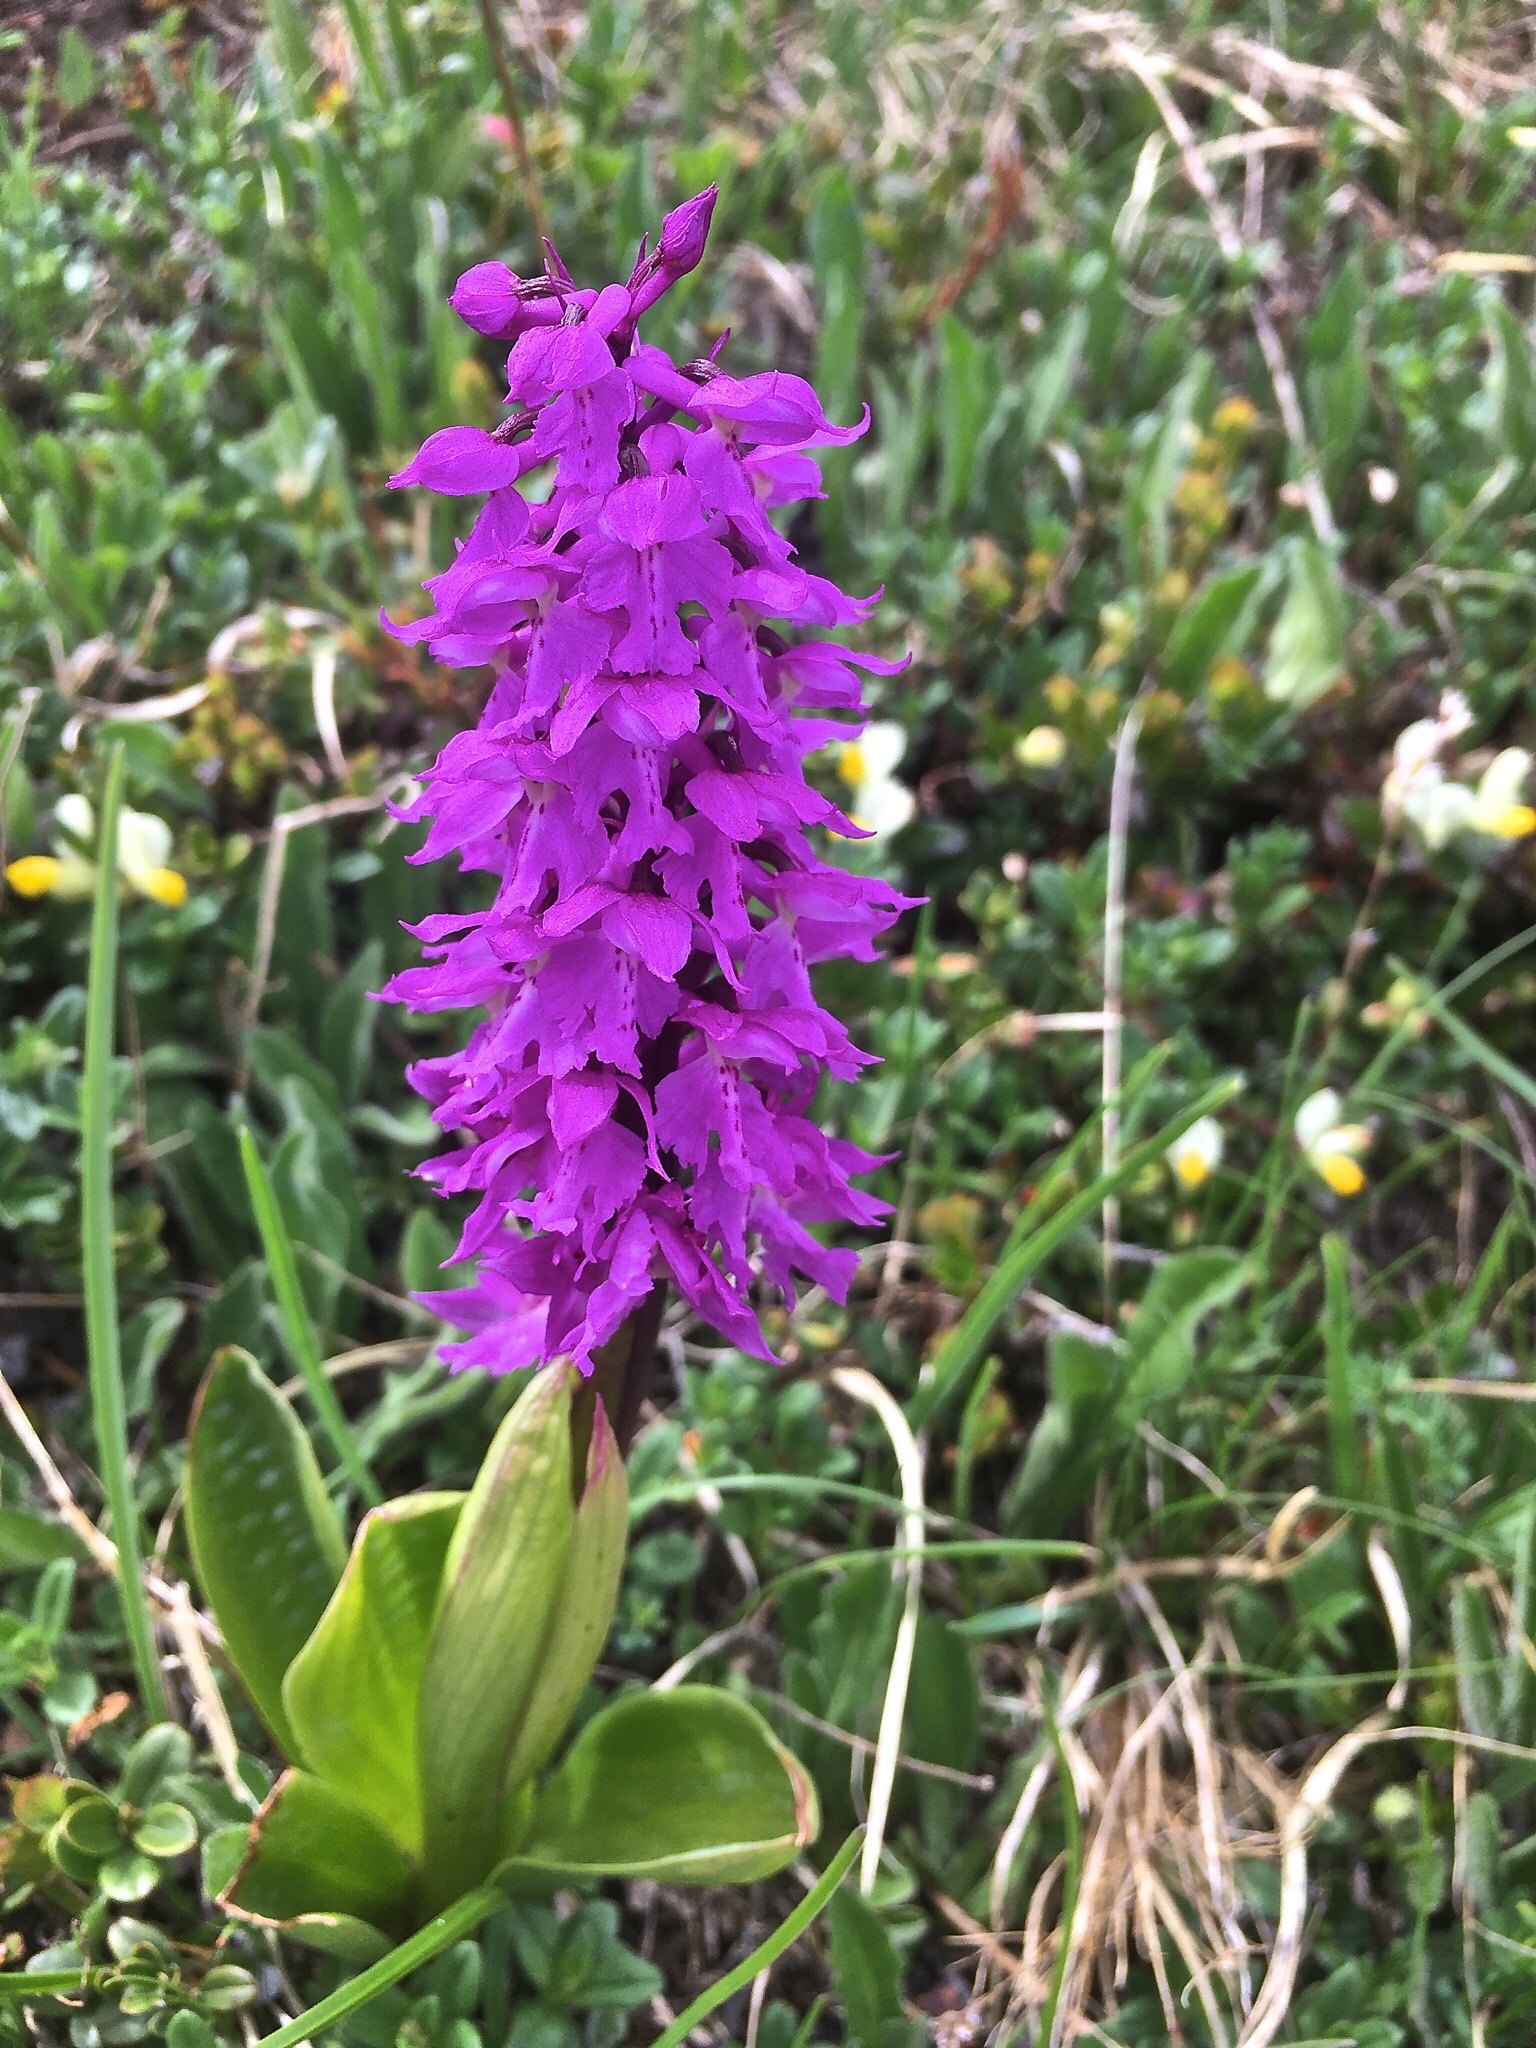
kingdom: Plantae
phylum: Tracheophyta
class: Liliopsida
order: Asparagales
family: Orchidaceae
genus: Orchis
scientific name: Orchis mascula
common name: Early-purple orchid
